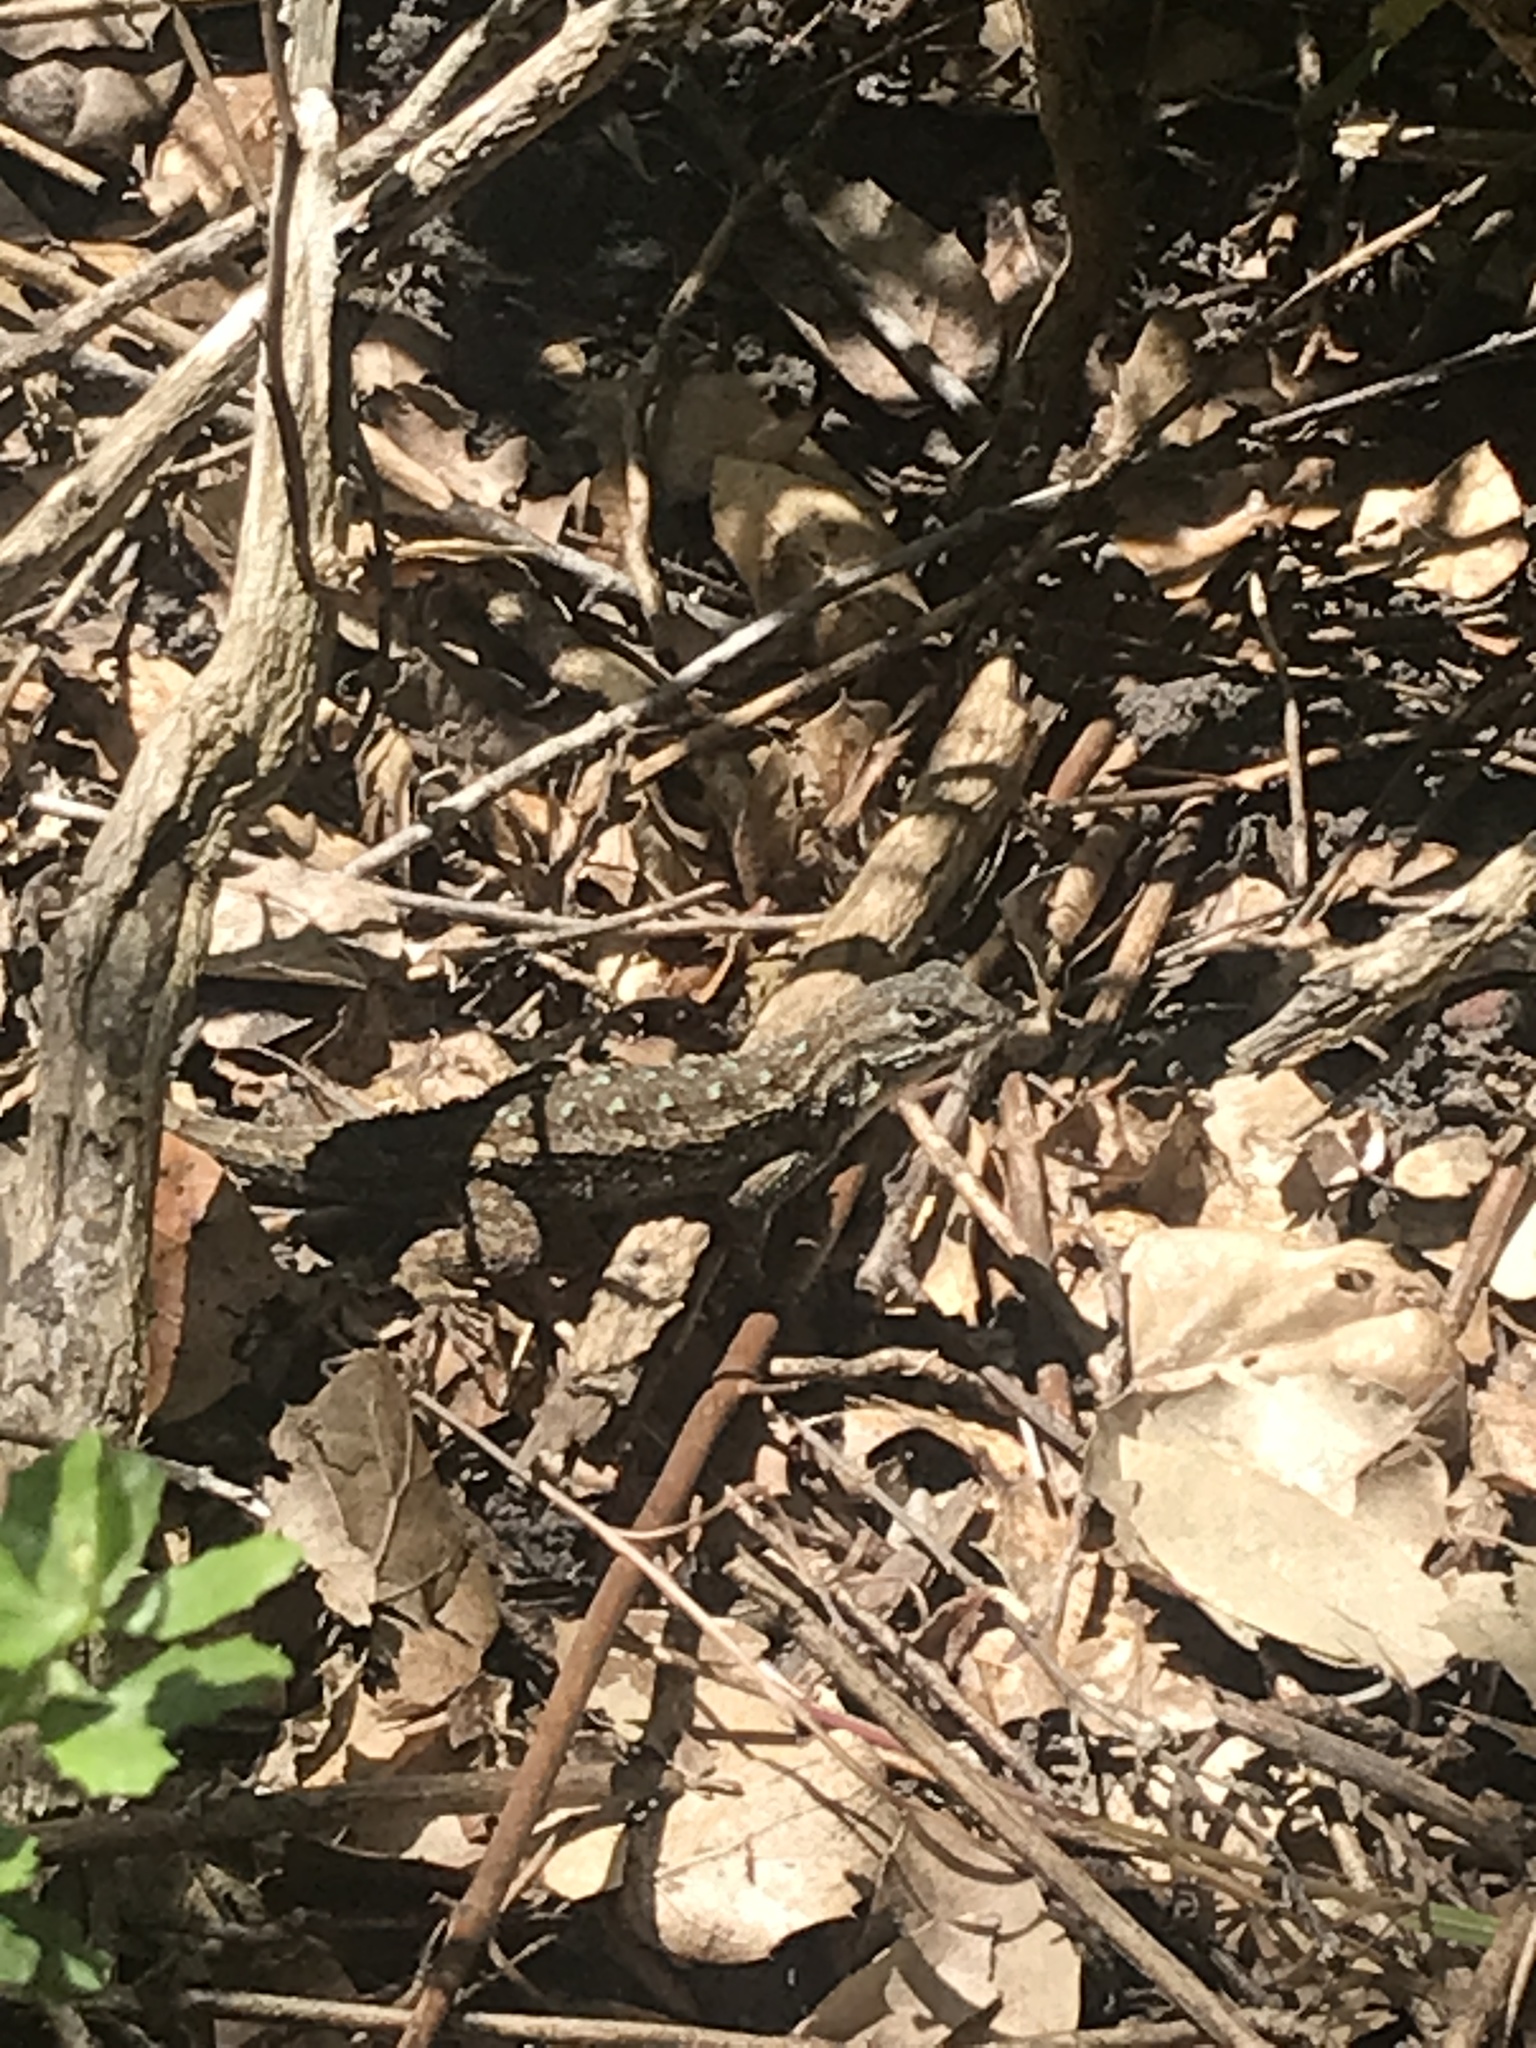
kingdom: Animalia
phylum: Chordata
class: Squamata
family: Phrynosomatidae
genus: Sceloporus
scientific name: Sceloporus occidentalis
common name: Western fence lizard
